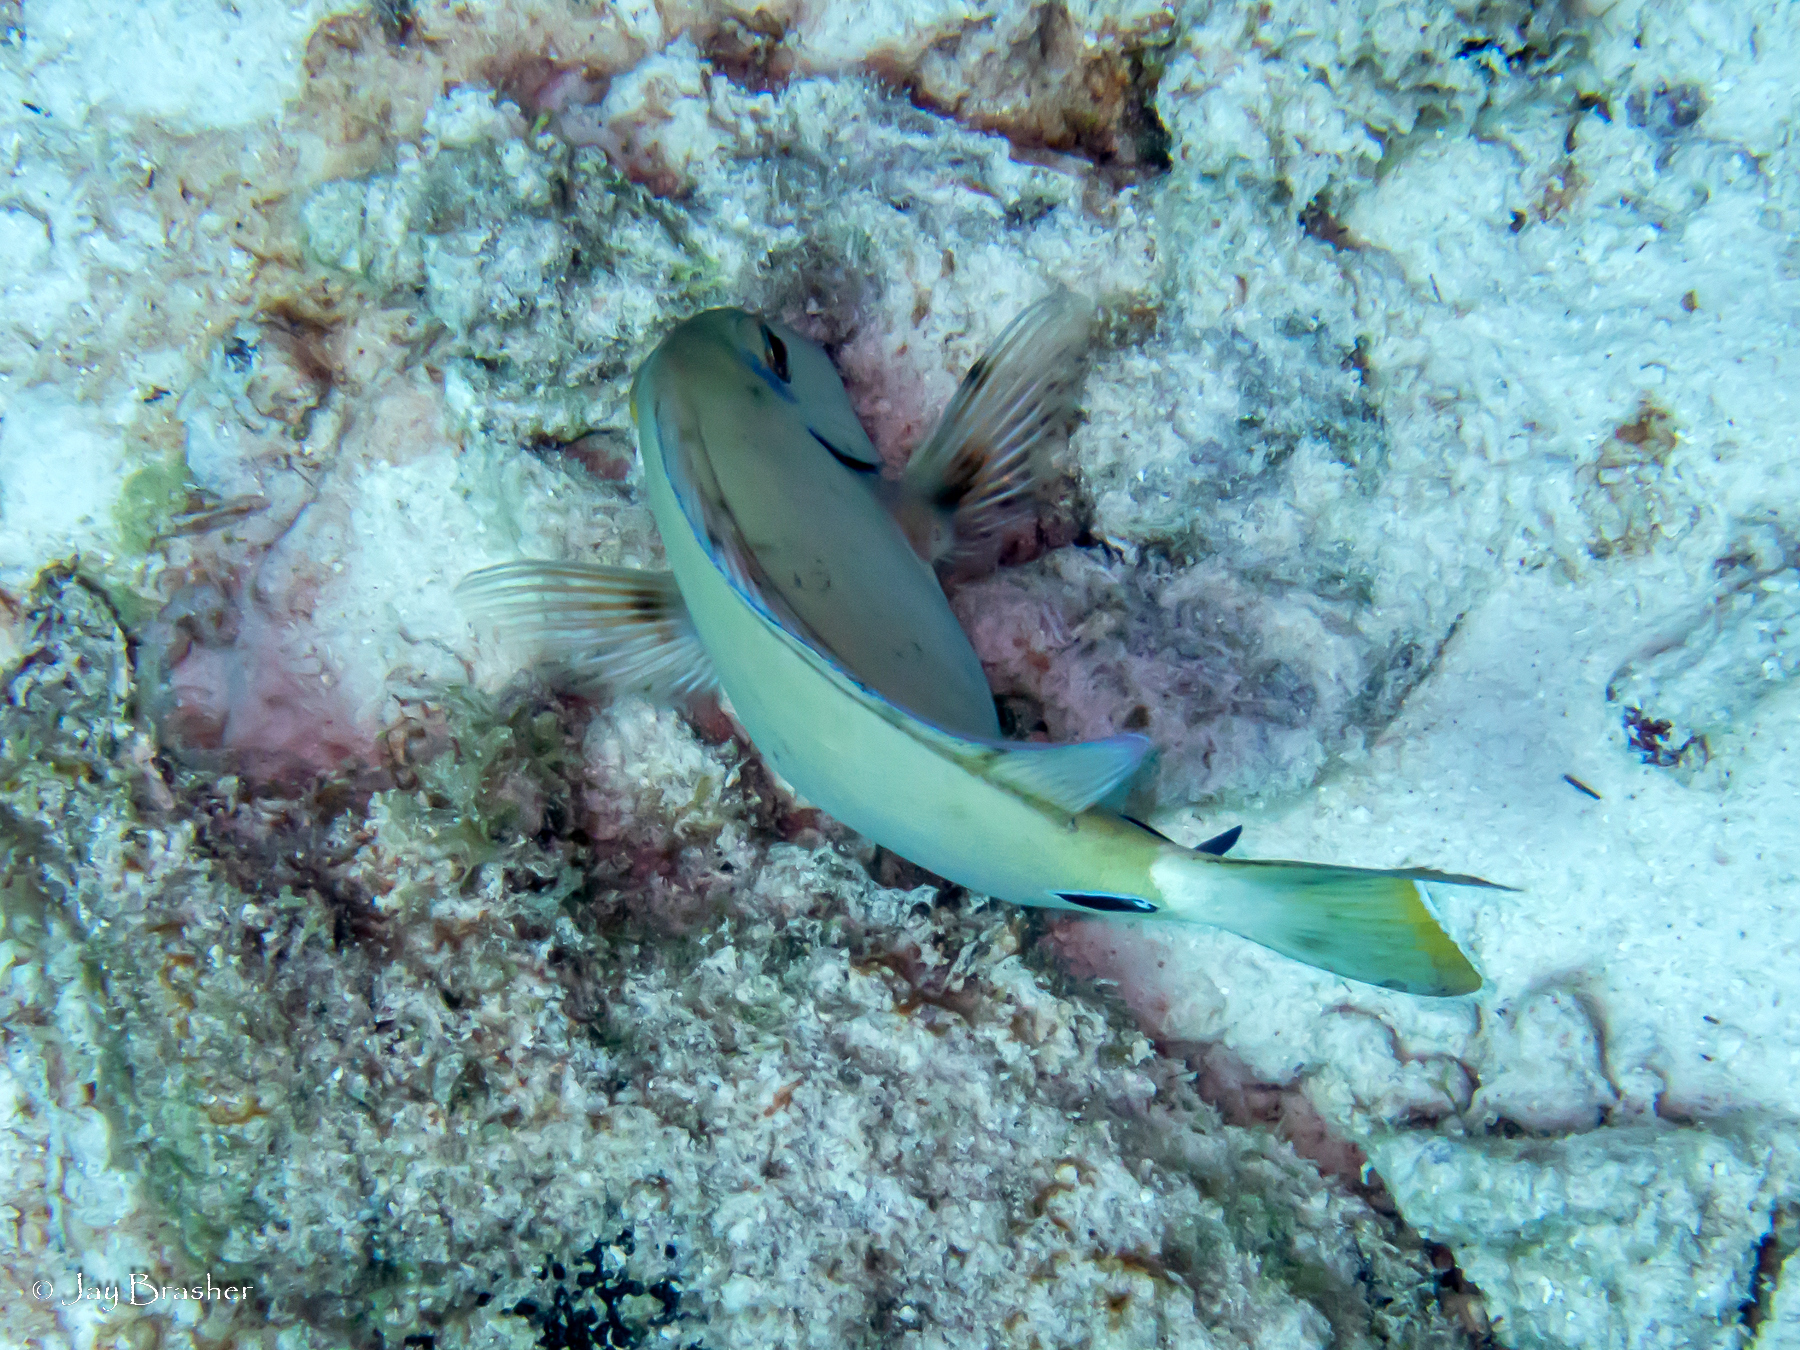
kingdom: Animalia
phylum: Chordata
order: Perciformes
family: Acanthuridae
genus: Acanthurus
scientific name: Acanthurus bahianus
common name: Ocean surgeon
